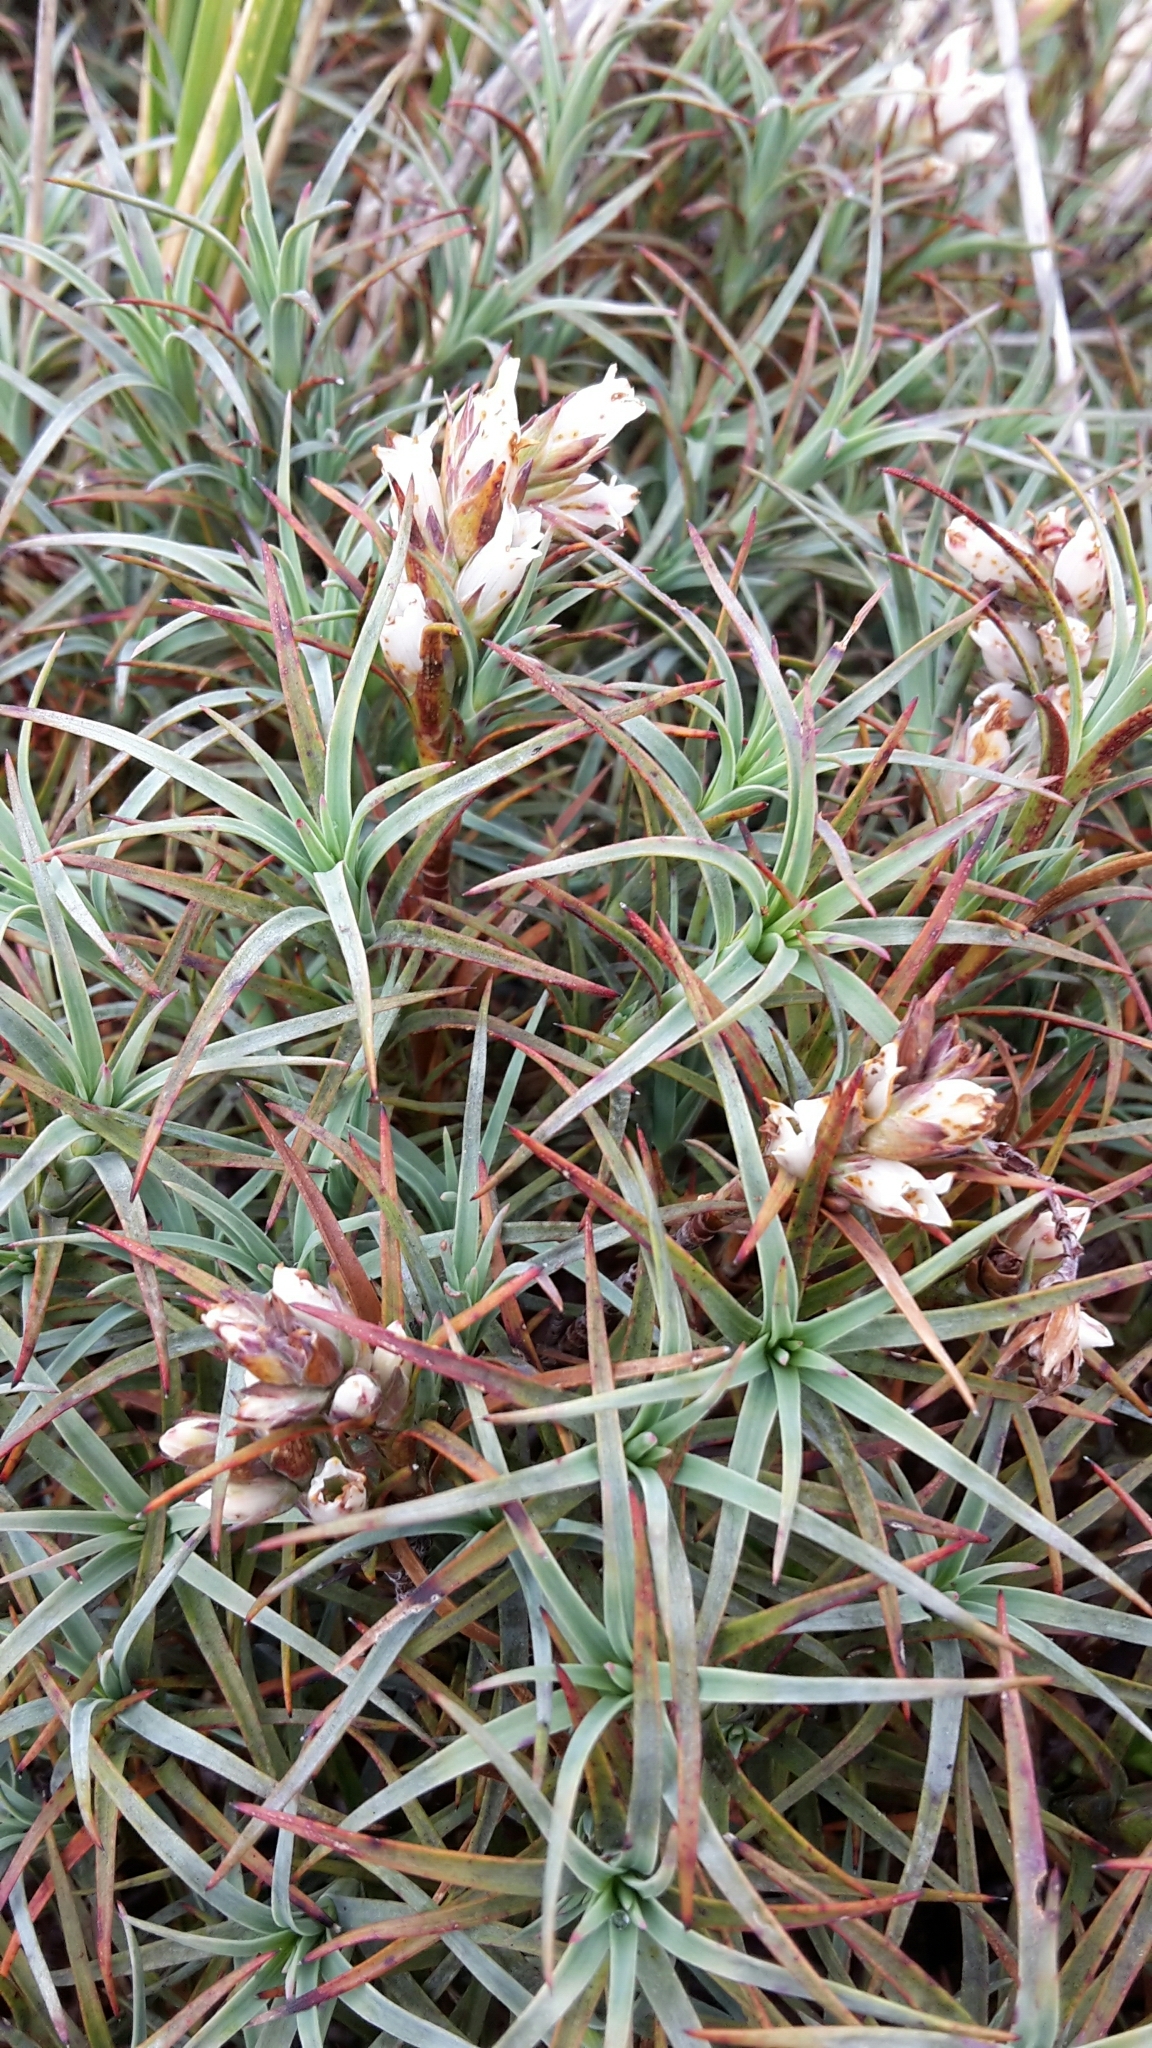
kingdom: Plantae
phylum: Tracheophyta
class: Magnoliopsida
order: Ericales
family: Ericaceae
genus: Dracophyllum
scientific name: Dracophyllum recurvum
